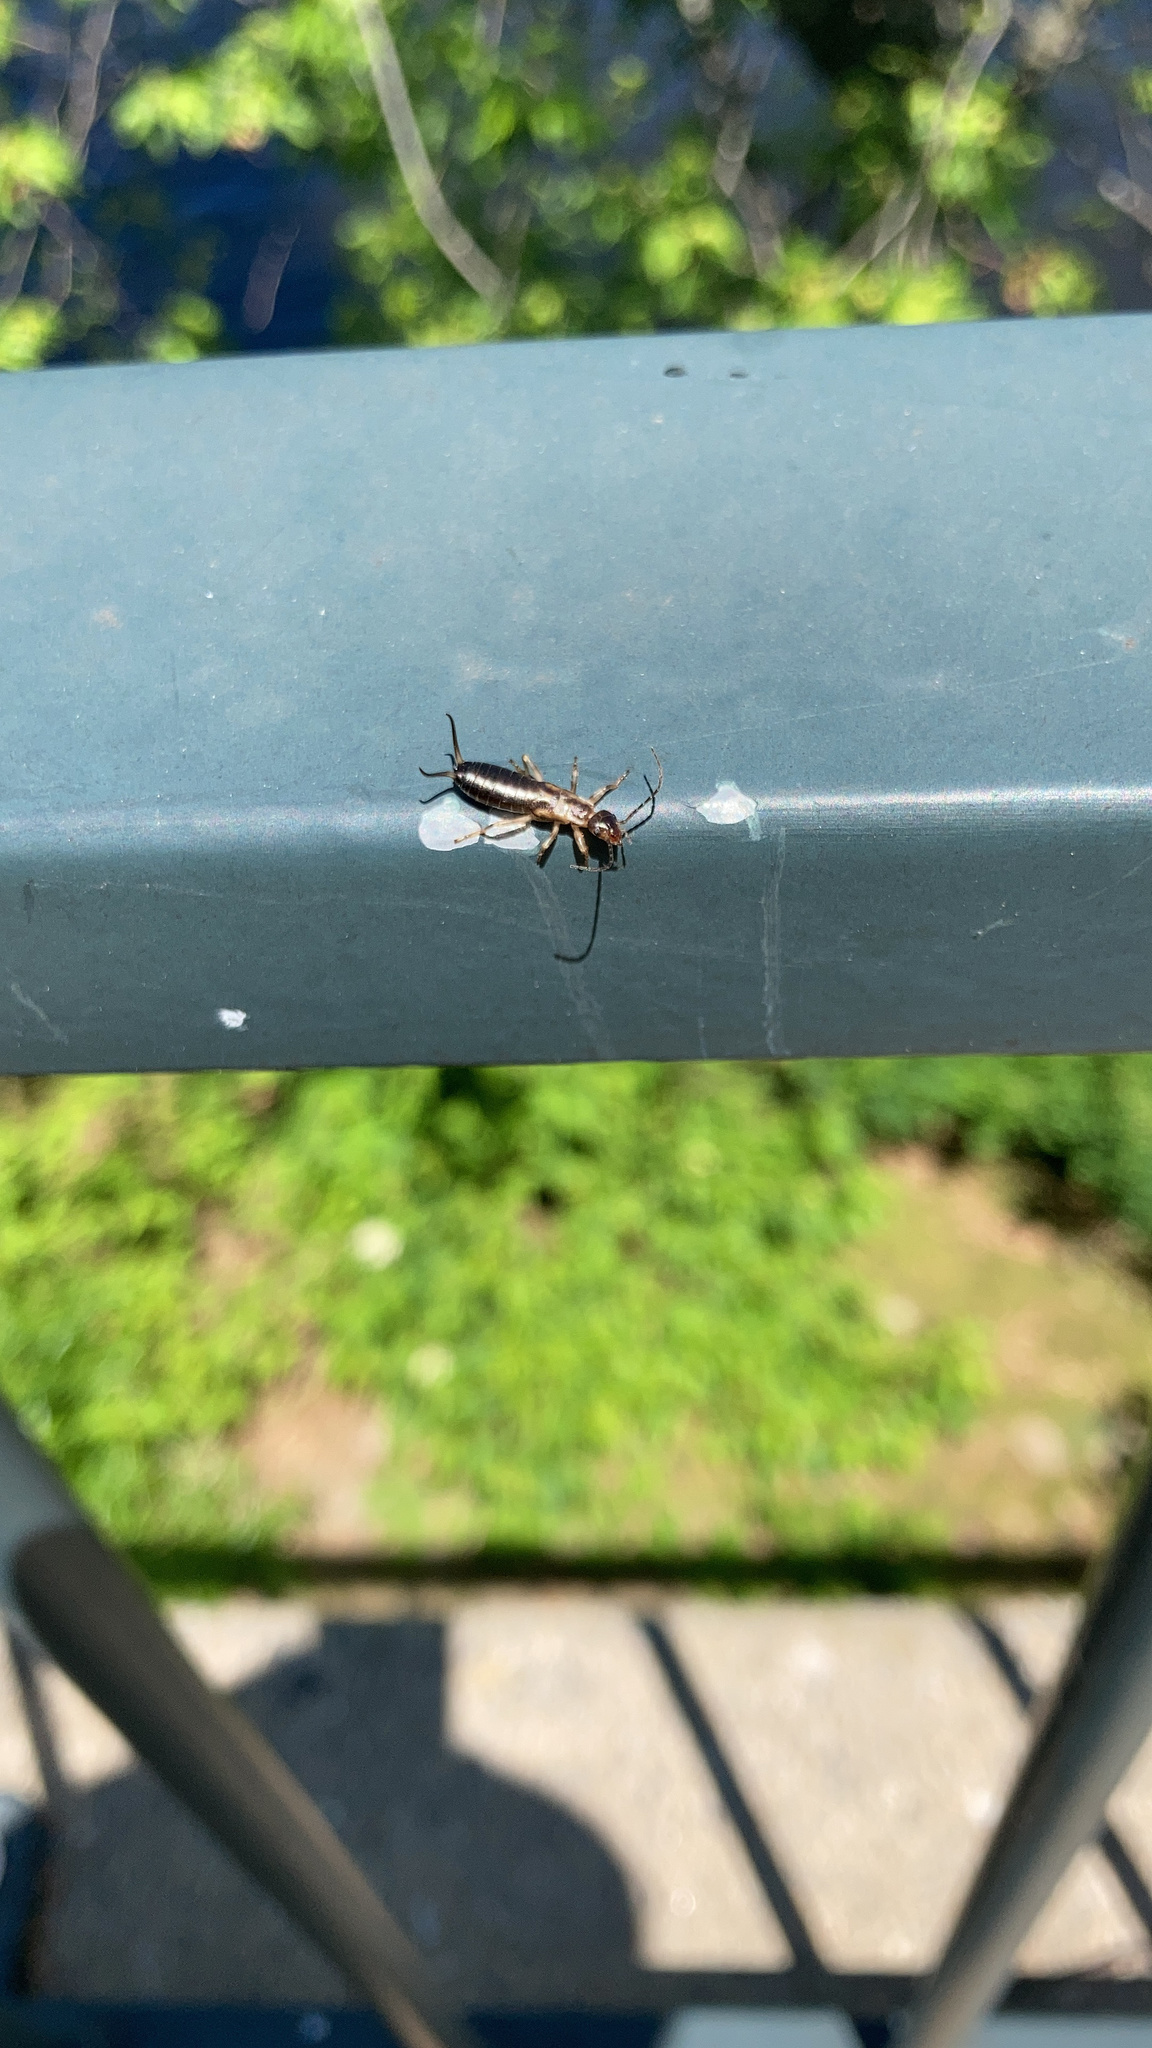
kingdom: Animalia
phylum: Arthropoda
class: Insecta
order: Dermaptera
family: Forficulidae
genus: Forficula
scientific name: Forficula
